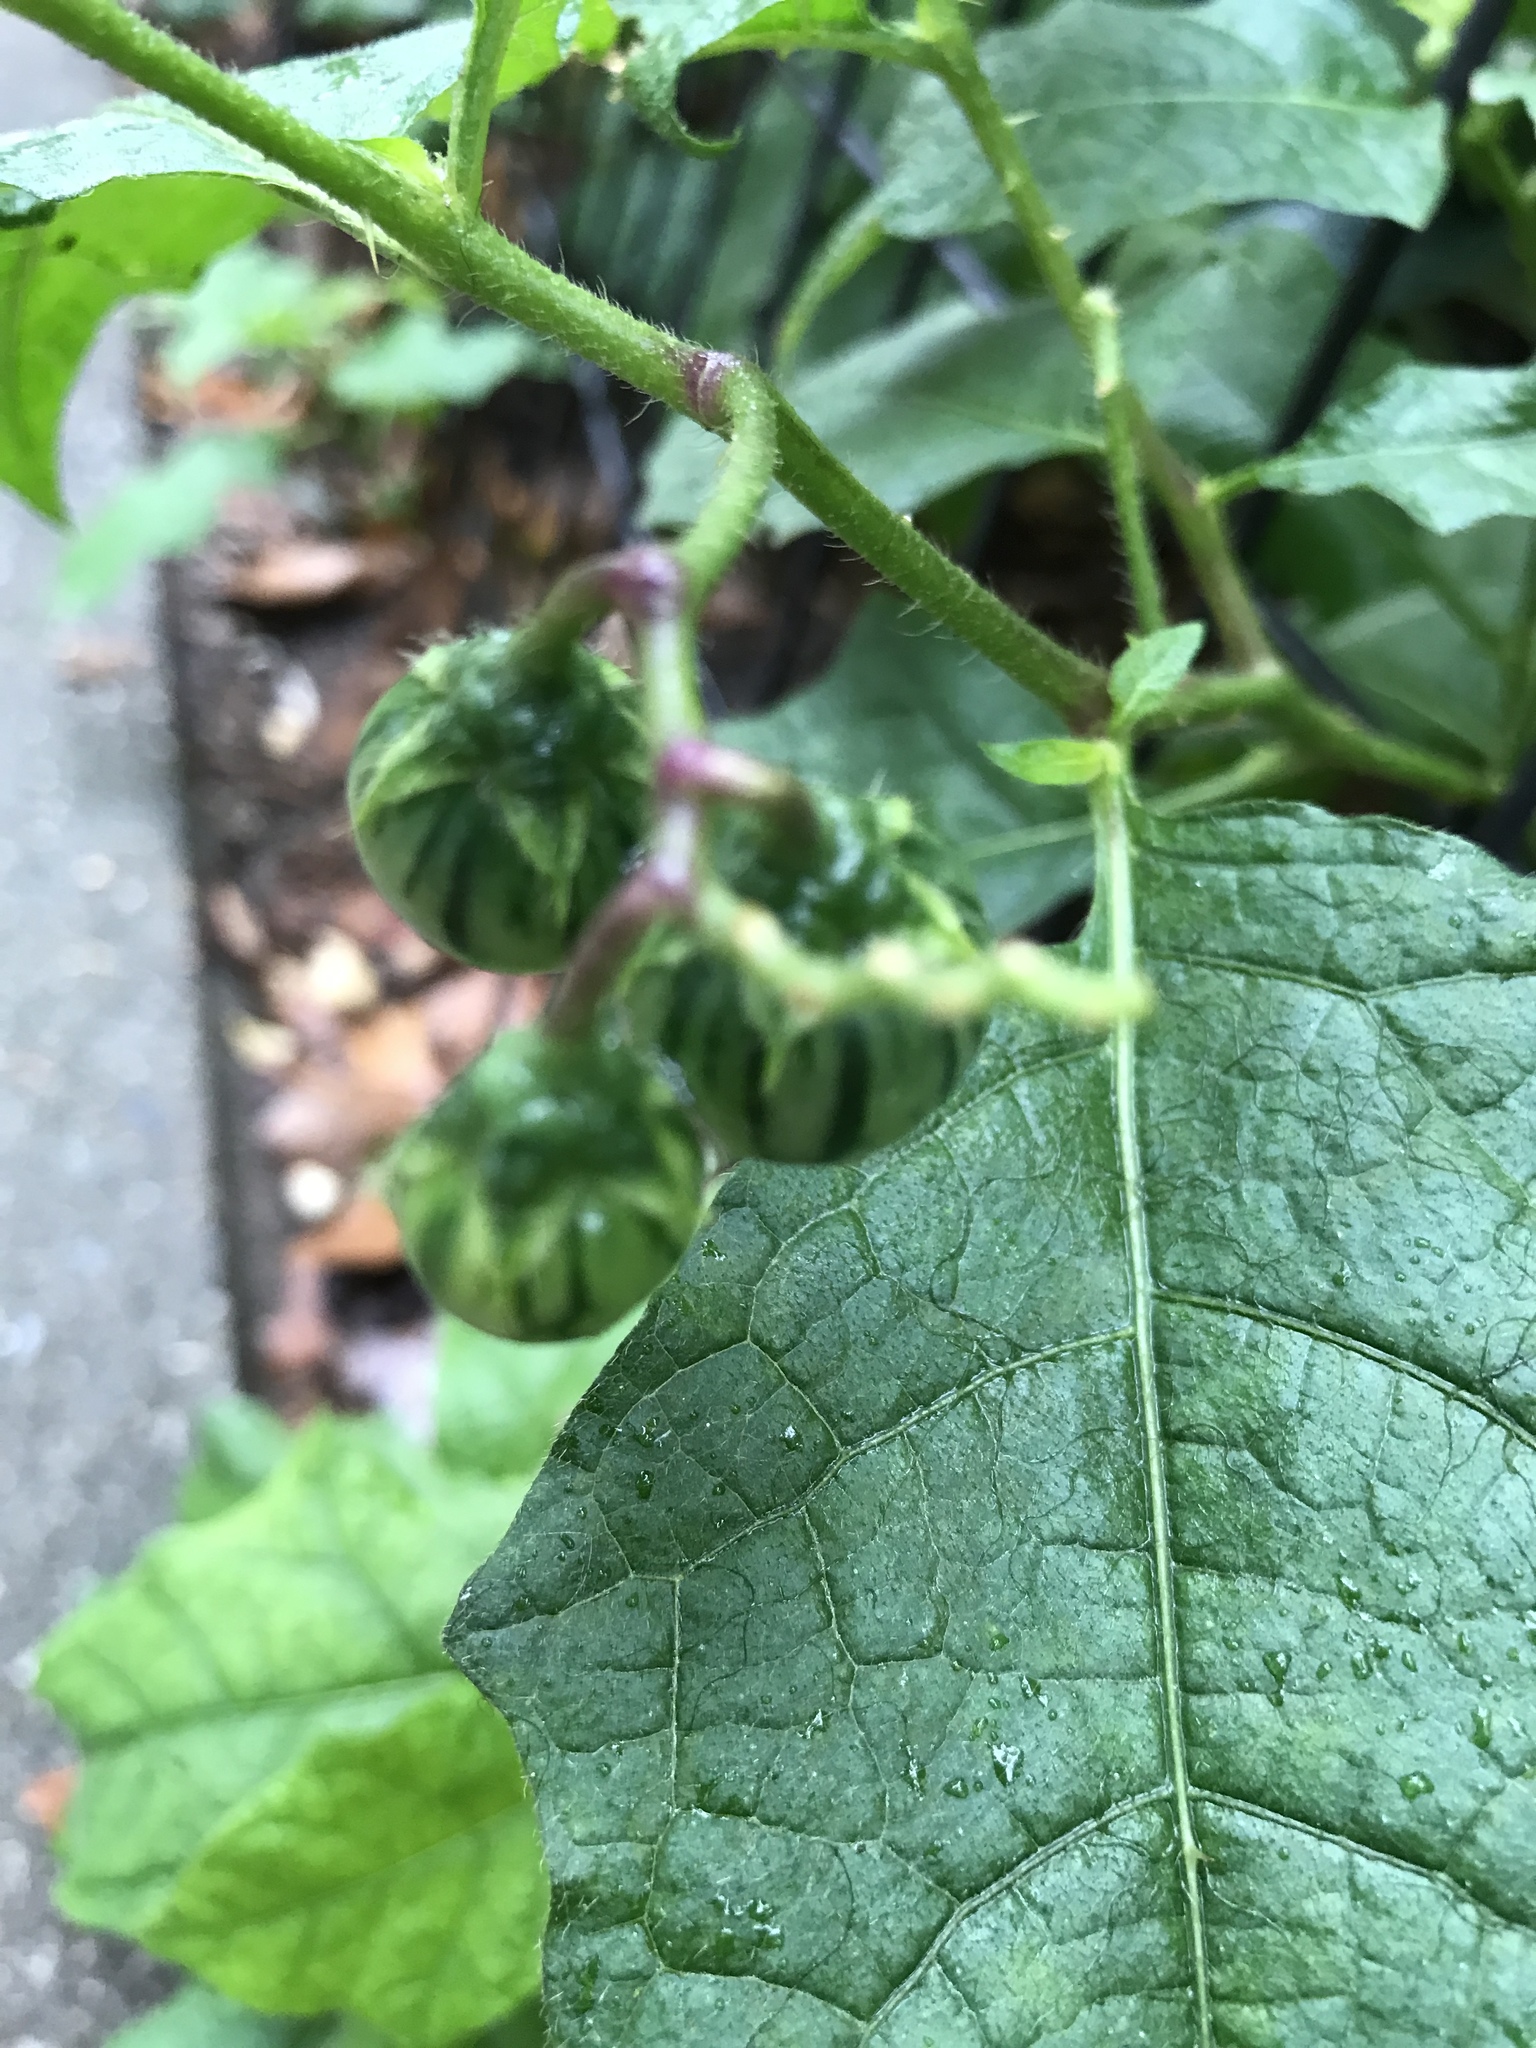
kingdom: Plantae
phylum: Tracheophyta
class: Magnoliopsida
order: Solanales
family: Solanaceae
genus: Solanum
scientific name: Solanum carolinense
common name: Horse-nettle
